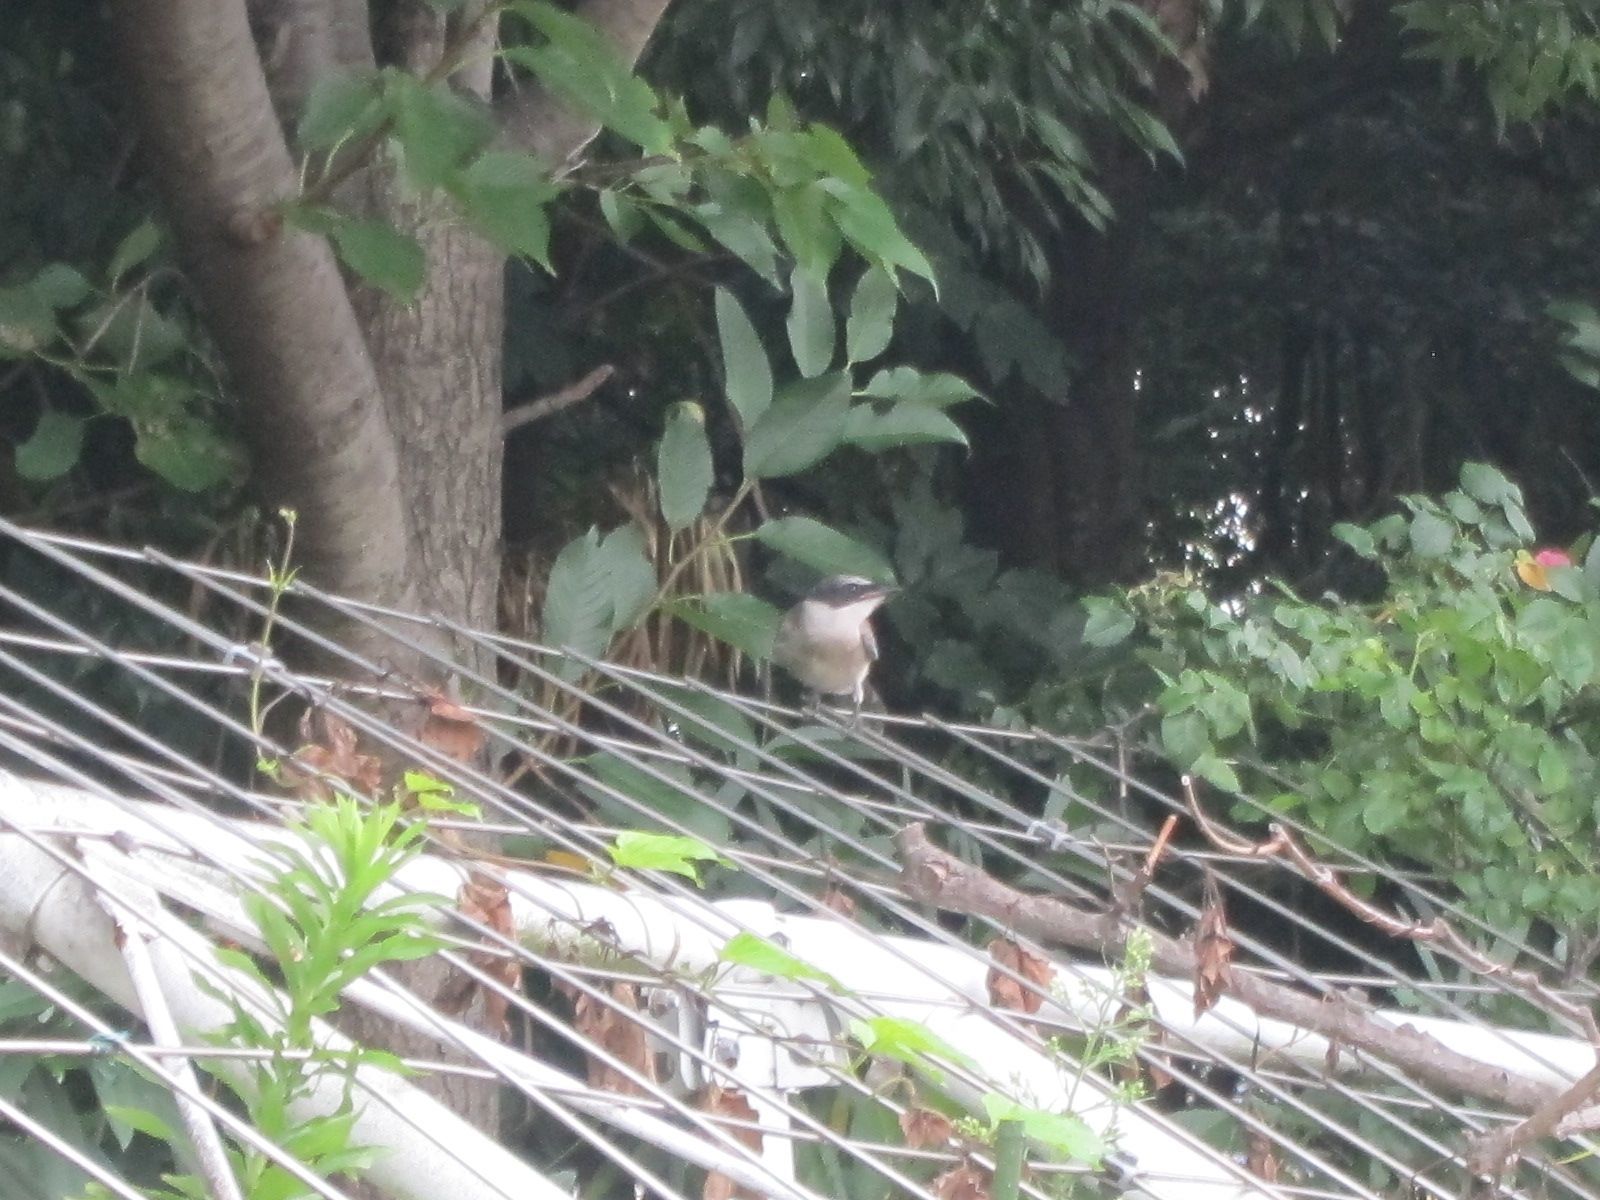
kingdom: Animalia
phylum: Chordata
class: Aves
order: Passeriformes
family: Corvidae
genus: Cyanopica
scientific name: Cyanopica cyanus
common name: Azure-winged magpie
